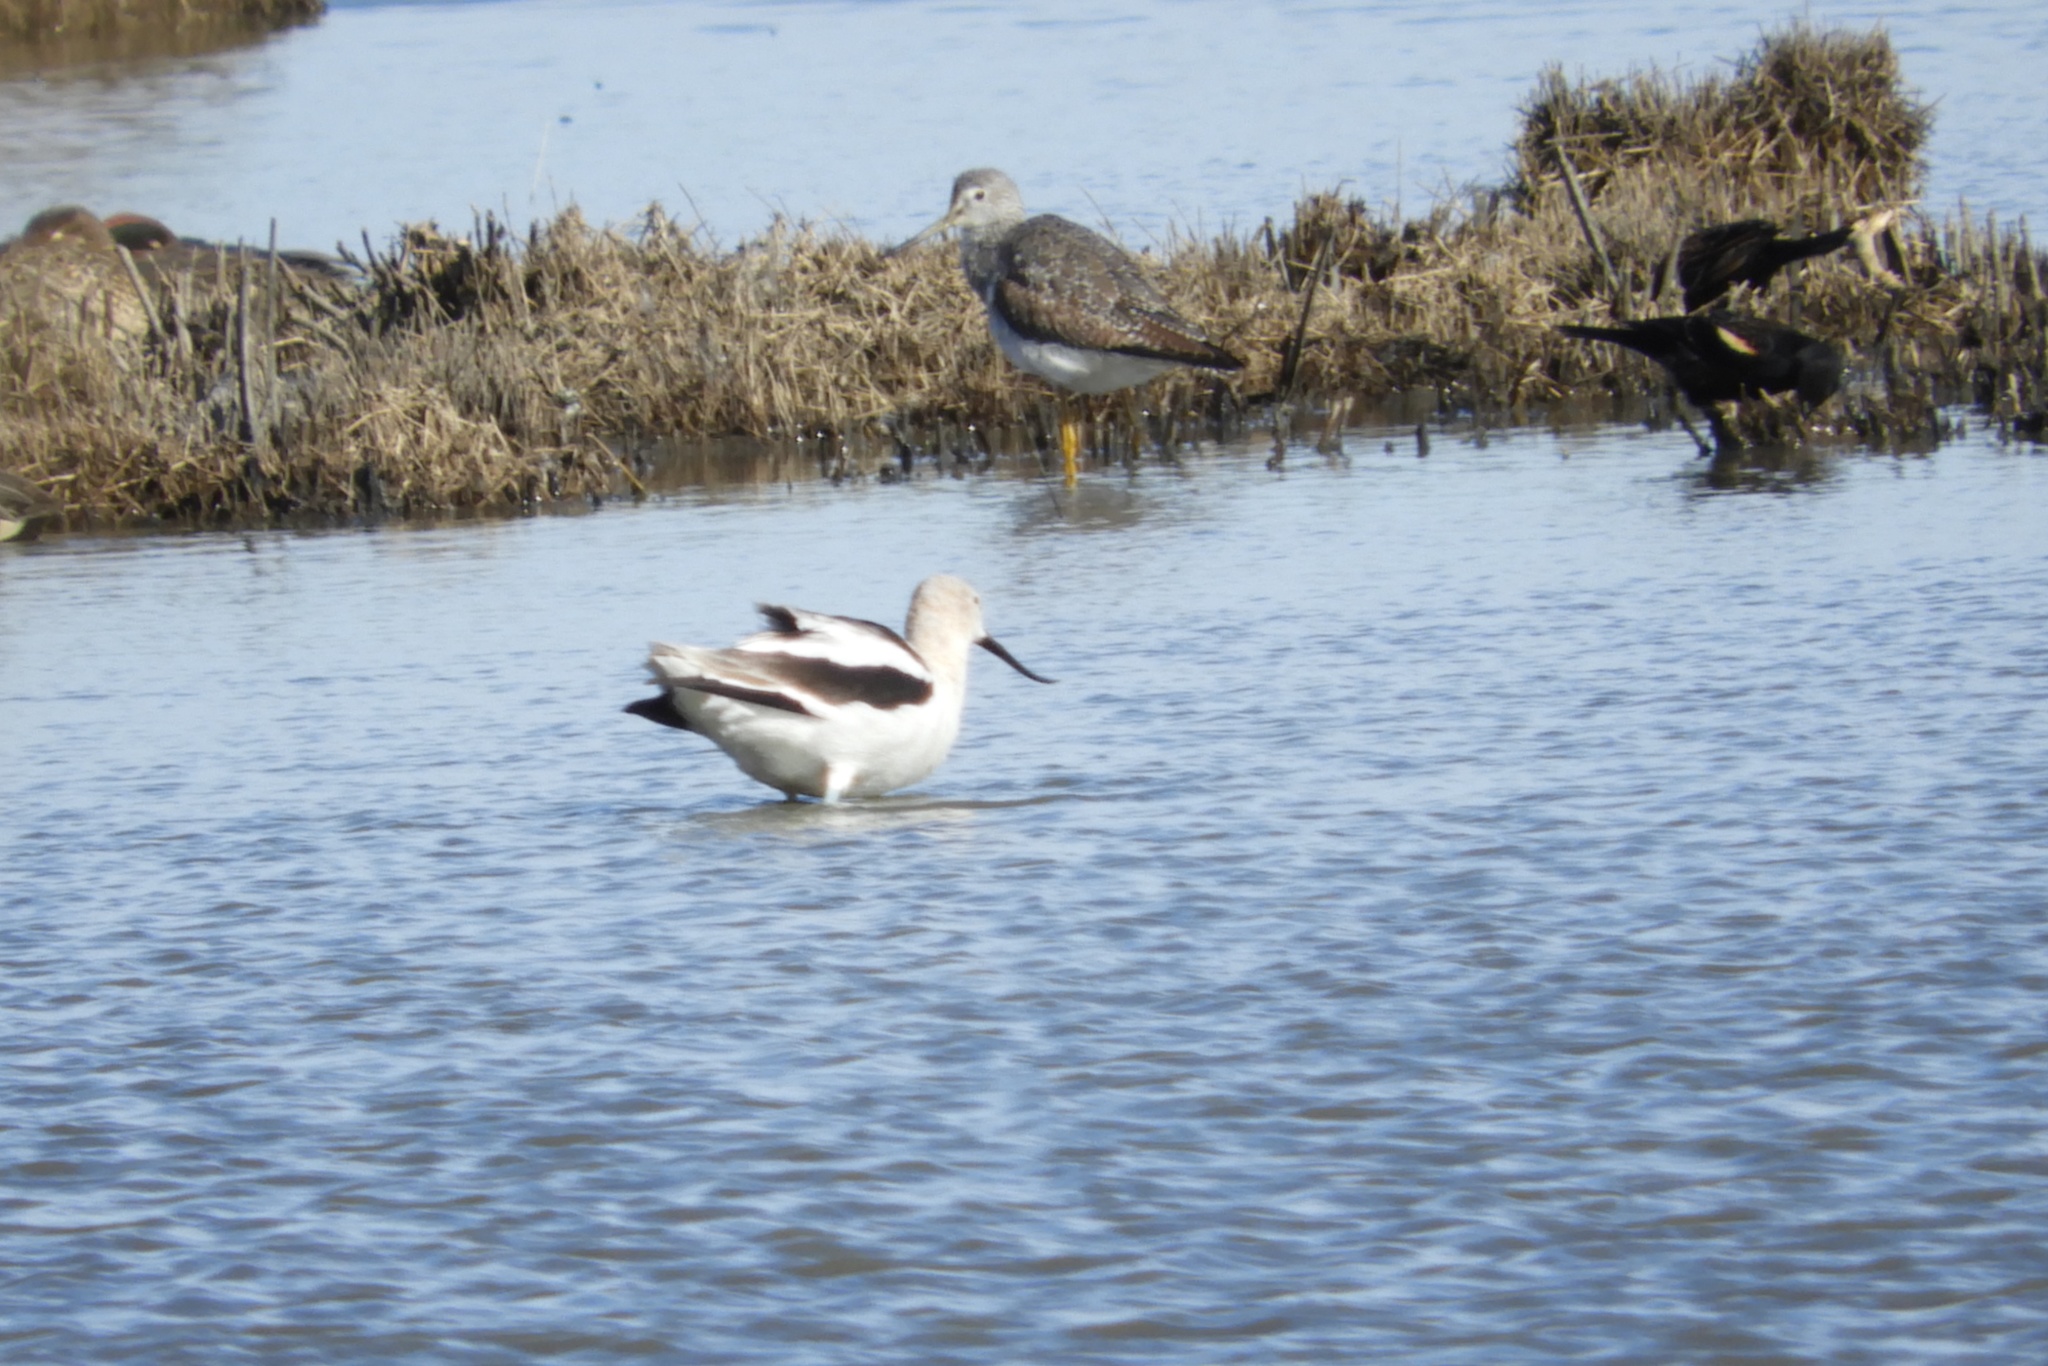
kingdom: Animalia
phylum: Chordata
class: Aves
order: Charadriiformes
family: Recurvirostridae
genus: Recurvirostra
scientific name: Recurvirostra americana
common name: American avocet
